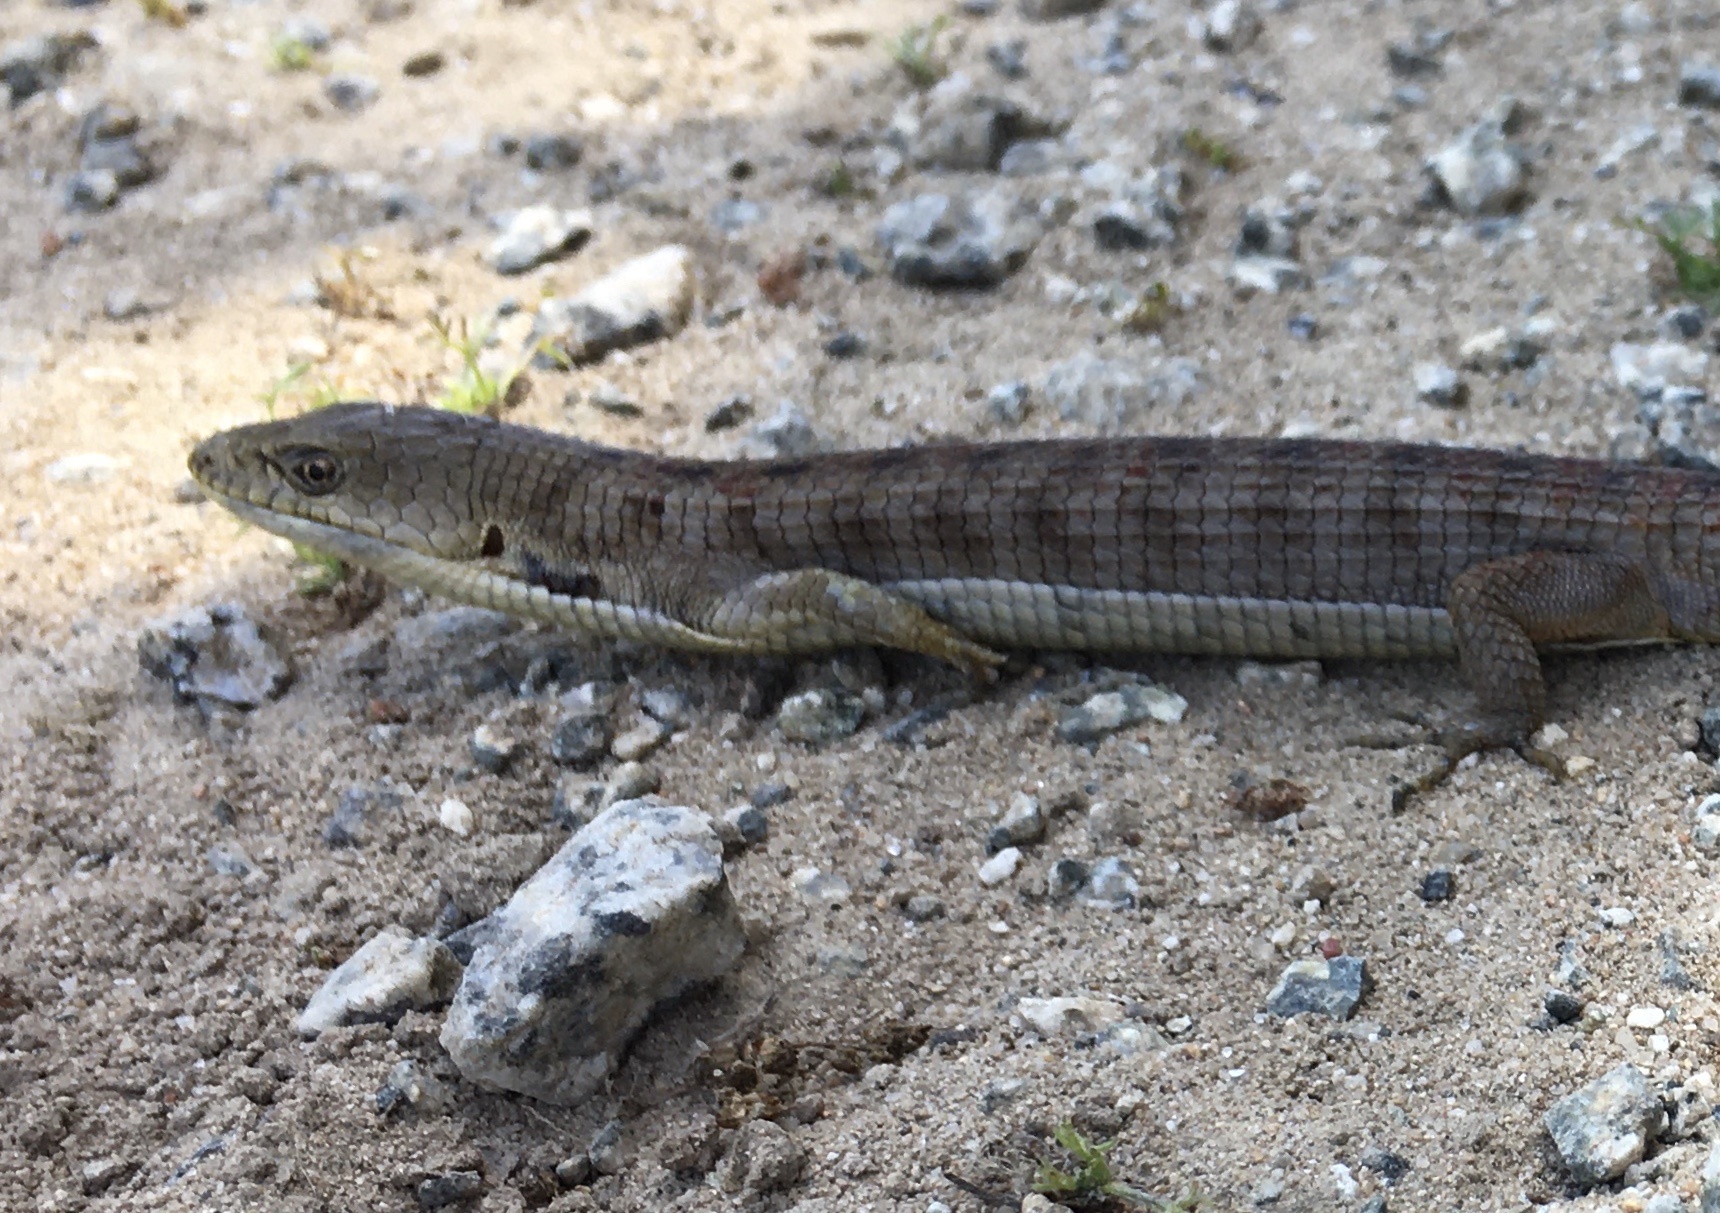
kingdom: Animalia
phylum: Chordata
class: Squamata
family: Anguidae
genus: Elgaria
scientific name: Elgaria multicarinata
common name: Southern alligator lizard
